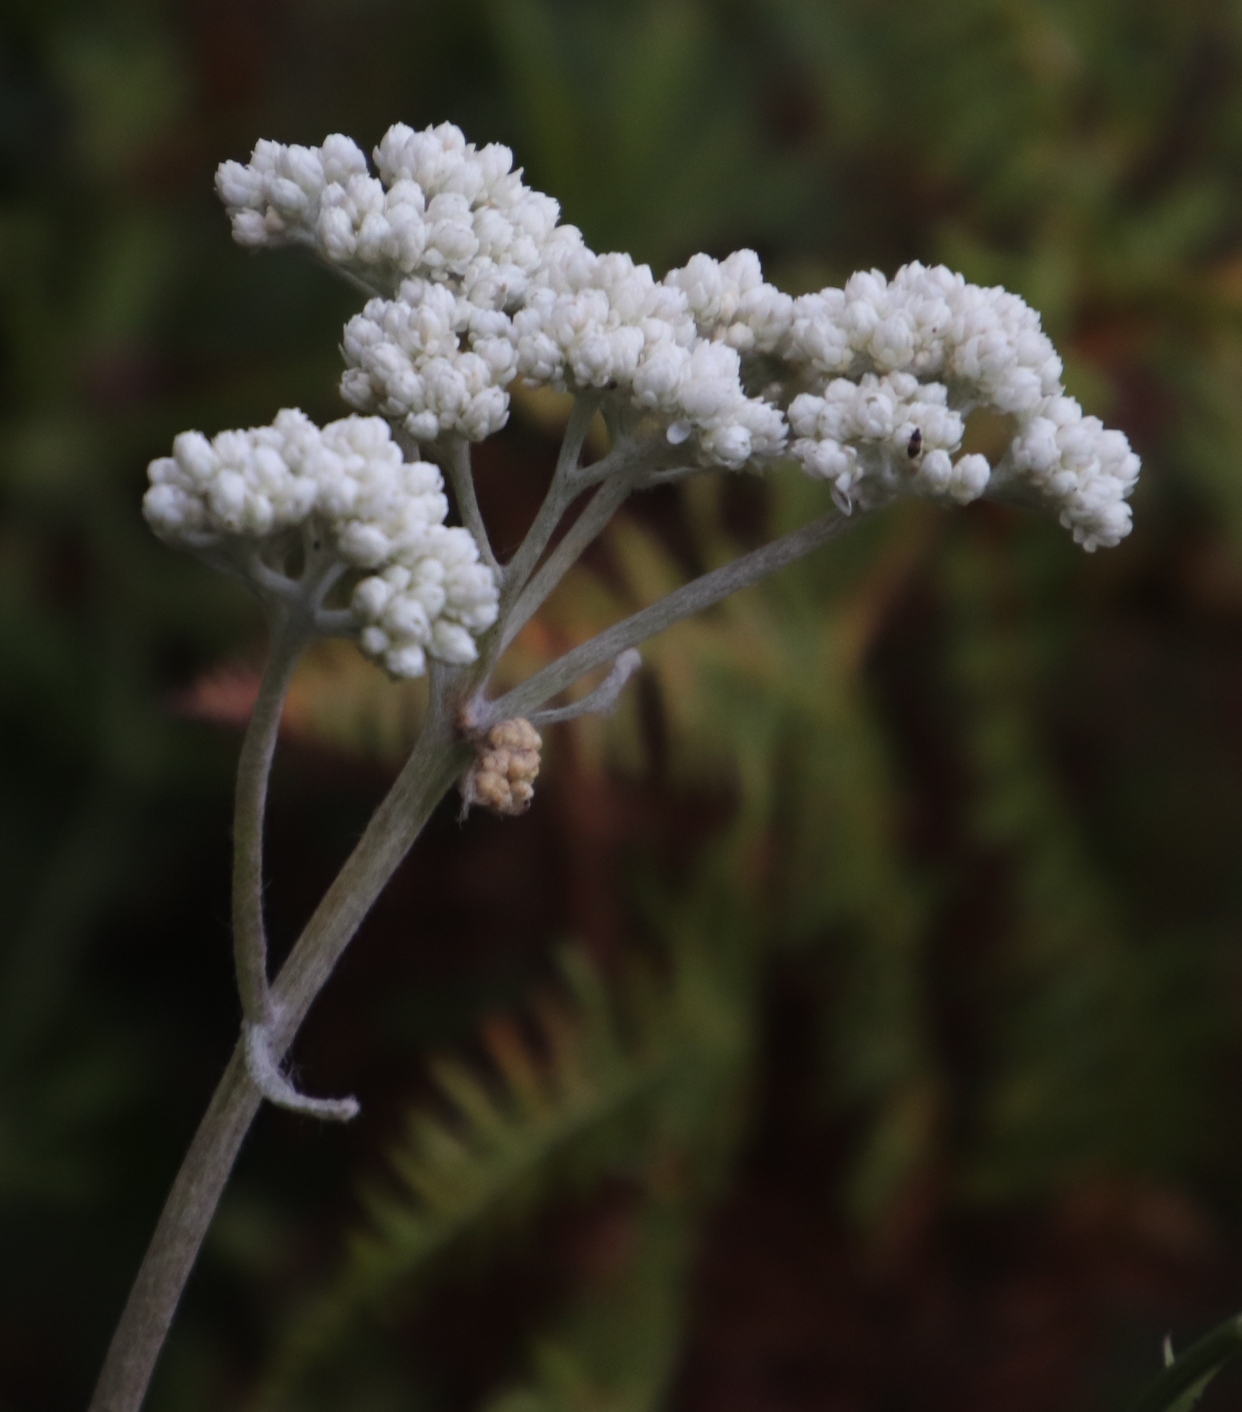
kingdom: Plantae
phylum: Tracheophyta
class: Magnoliopsida
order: Asterales
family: Asteraceae
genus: Helichrysum
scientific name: Helichrysum fruticans
